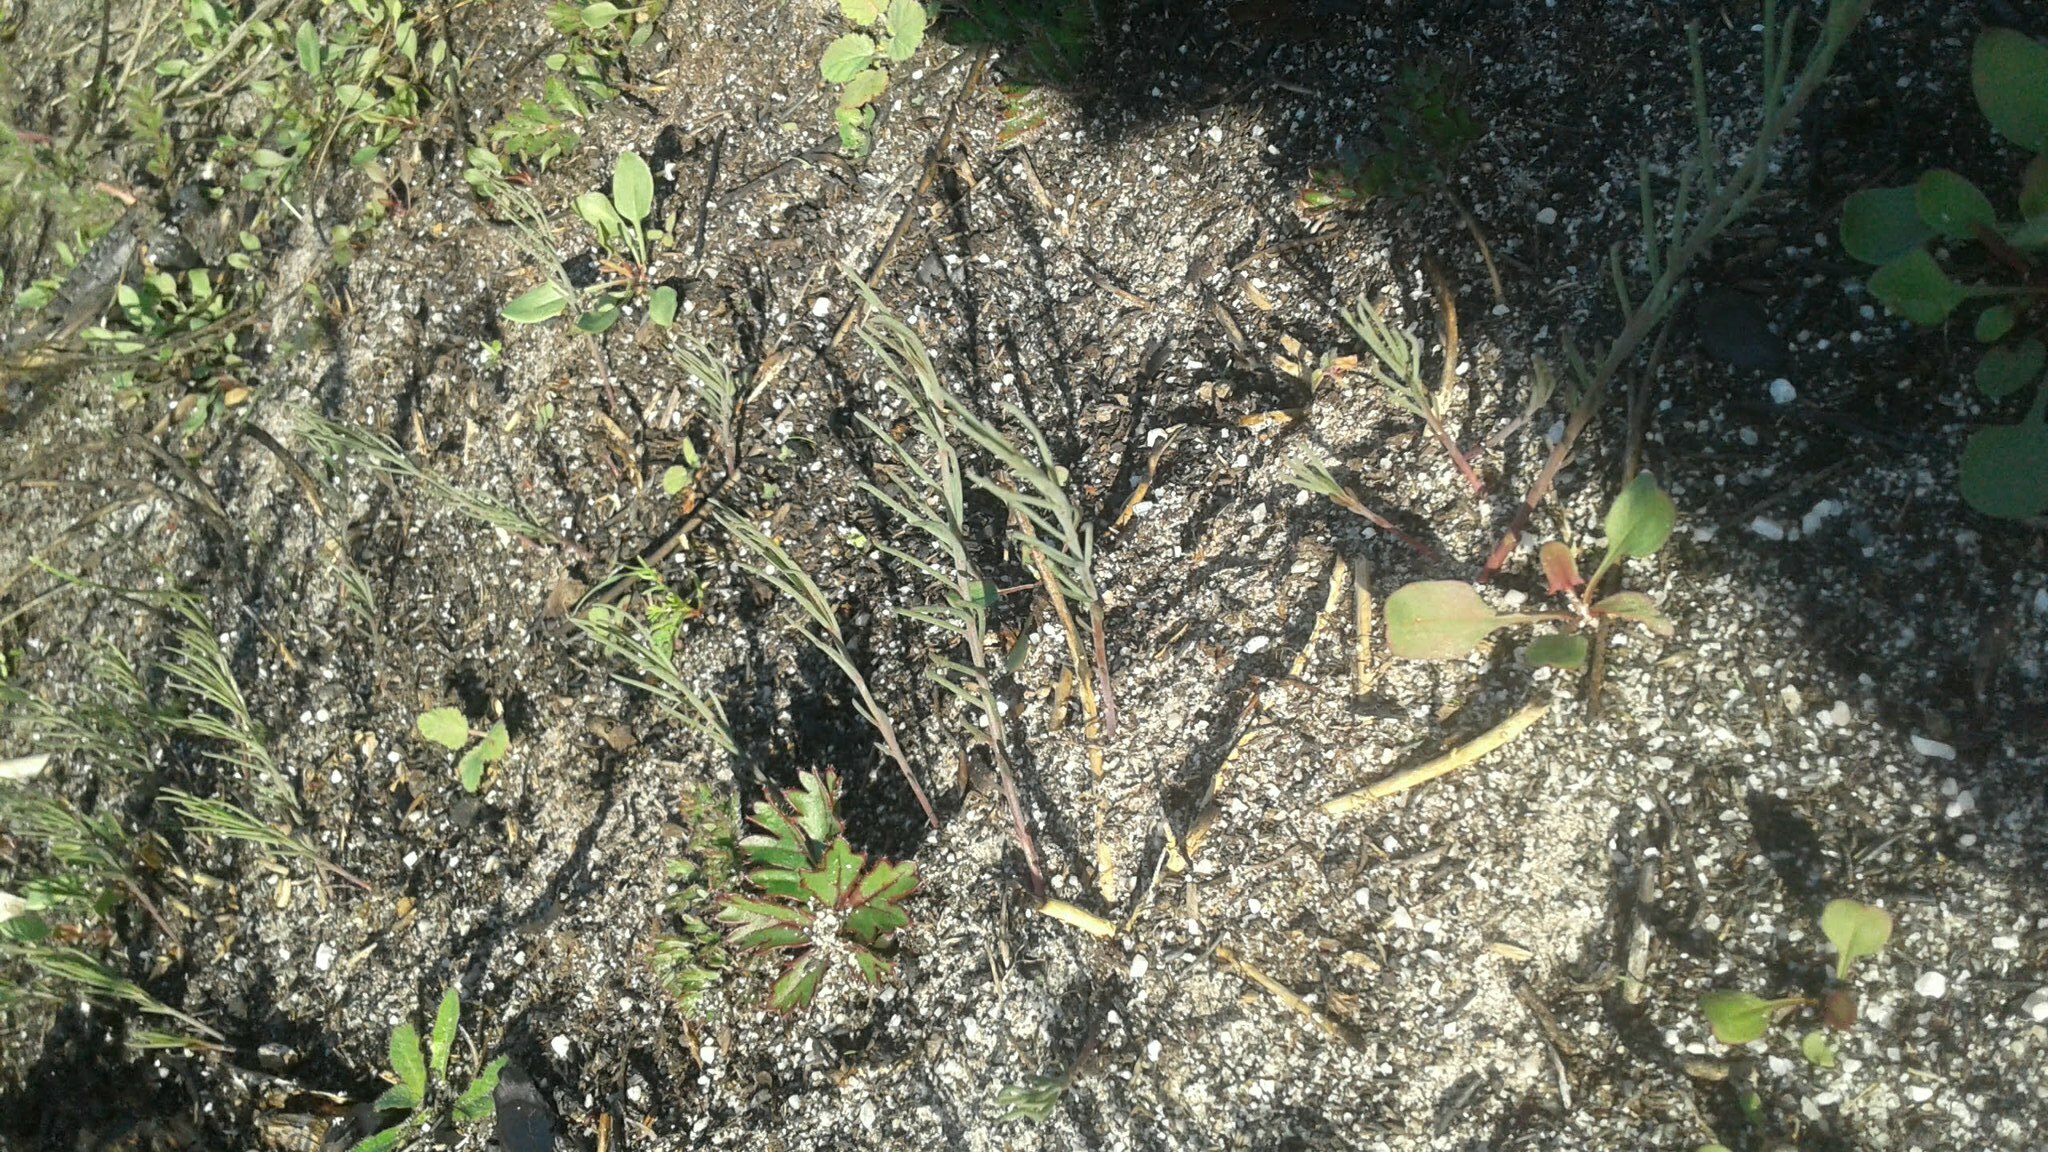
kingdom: Plantae
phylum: Tracheophyta
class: Magnoliopsida
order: Fabales
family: Fabaceae
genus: Lebeckia
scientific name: Lebeckia contaminata
